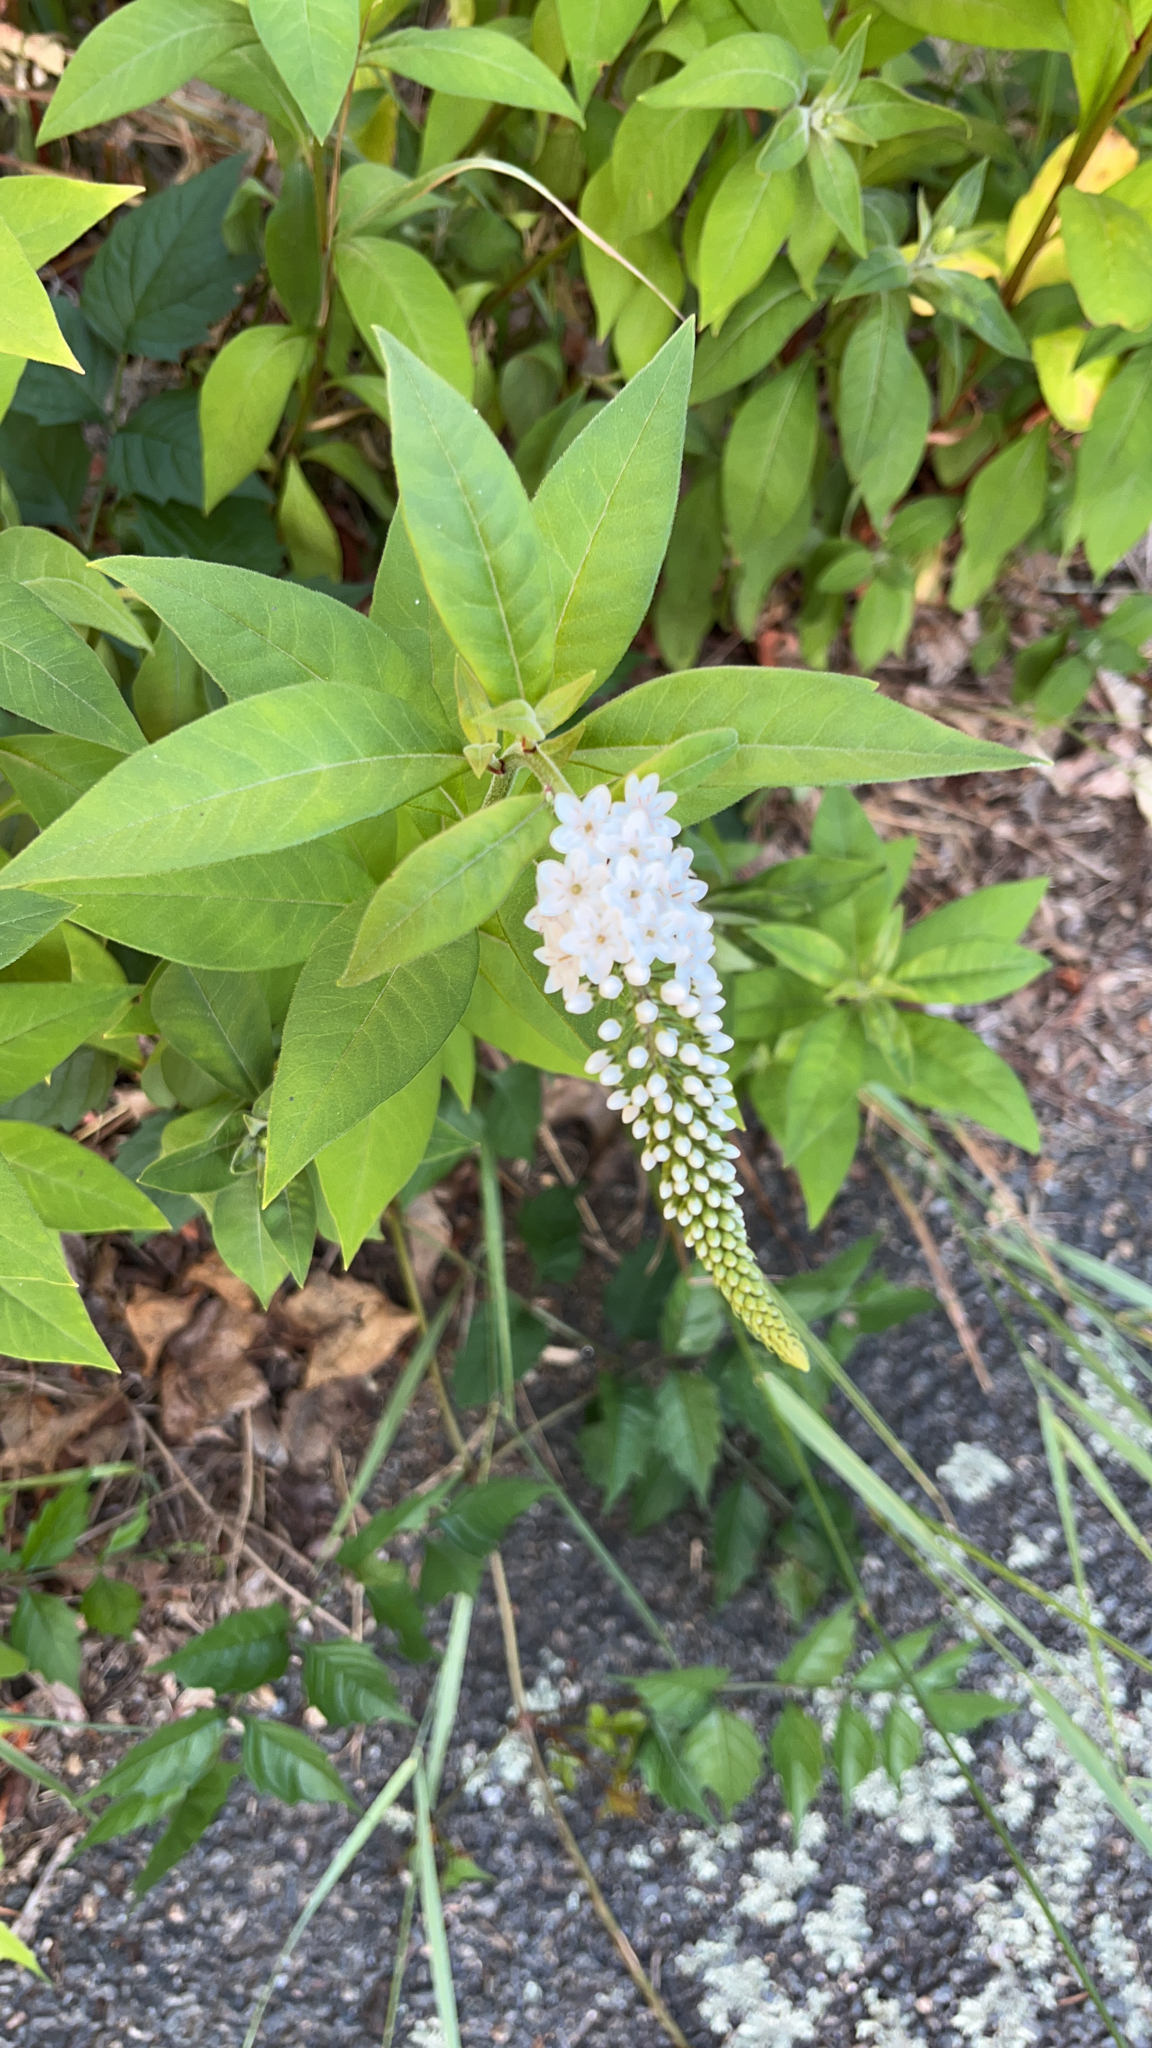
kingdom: Plantae
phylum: Tracheophyta
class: Magnoliopsida
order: Ericales
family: Primulaceae
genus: Lysimachia
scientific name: Lysimachia clethroides
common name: Gooseneck loosestrife
